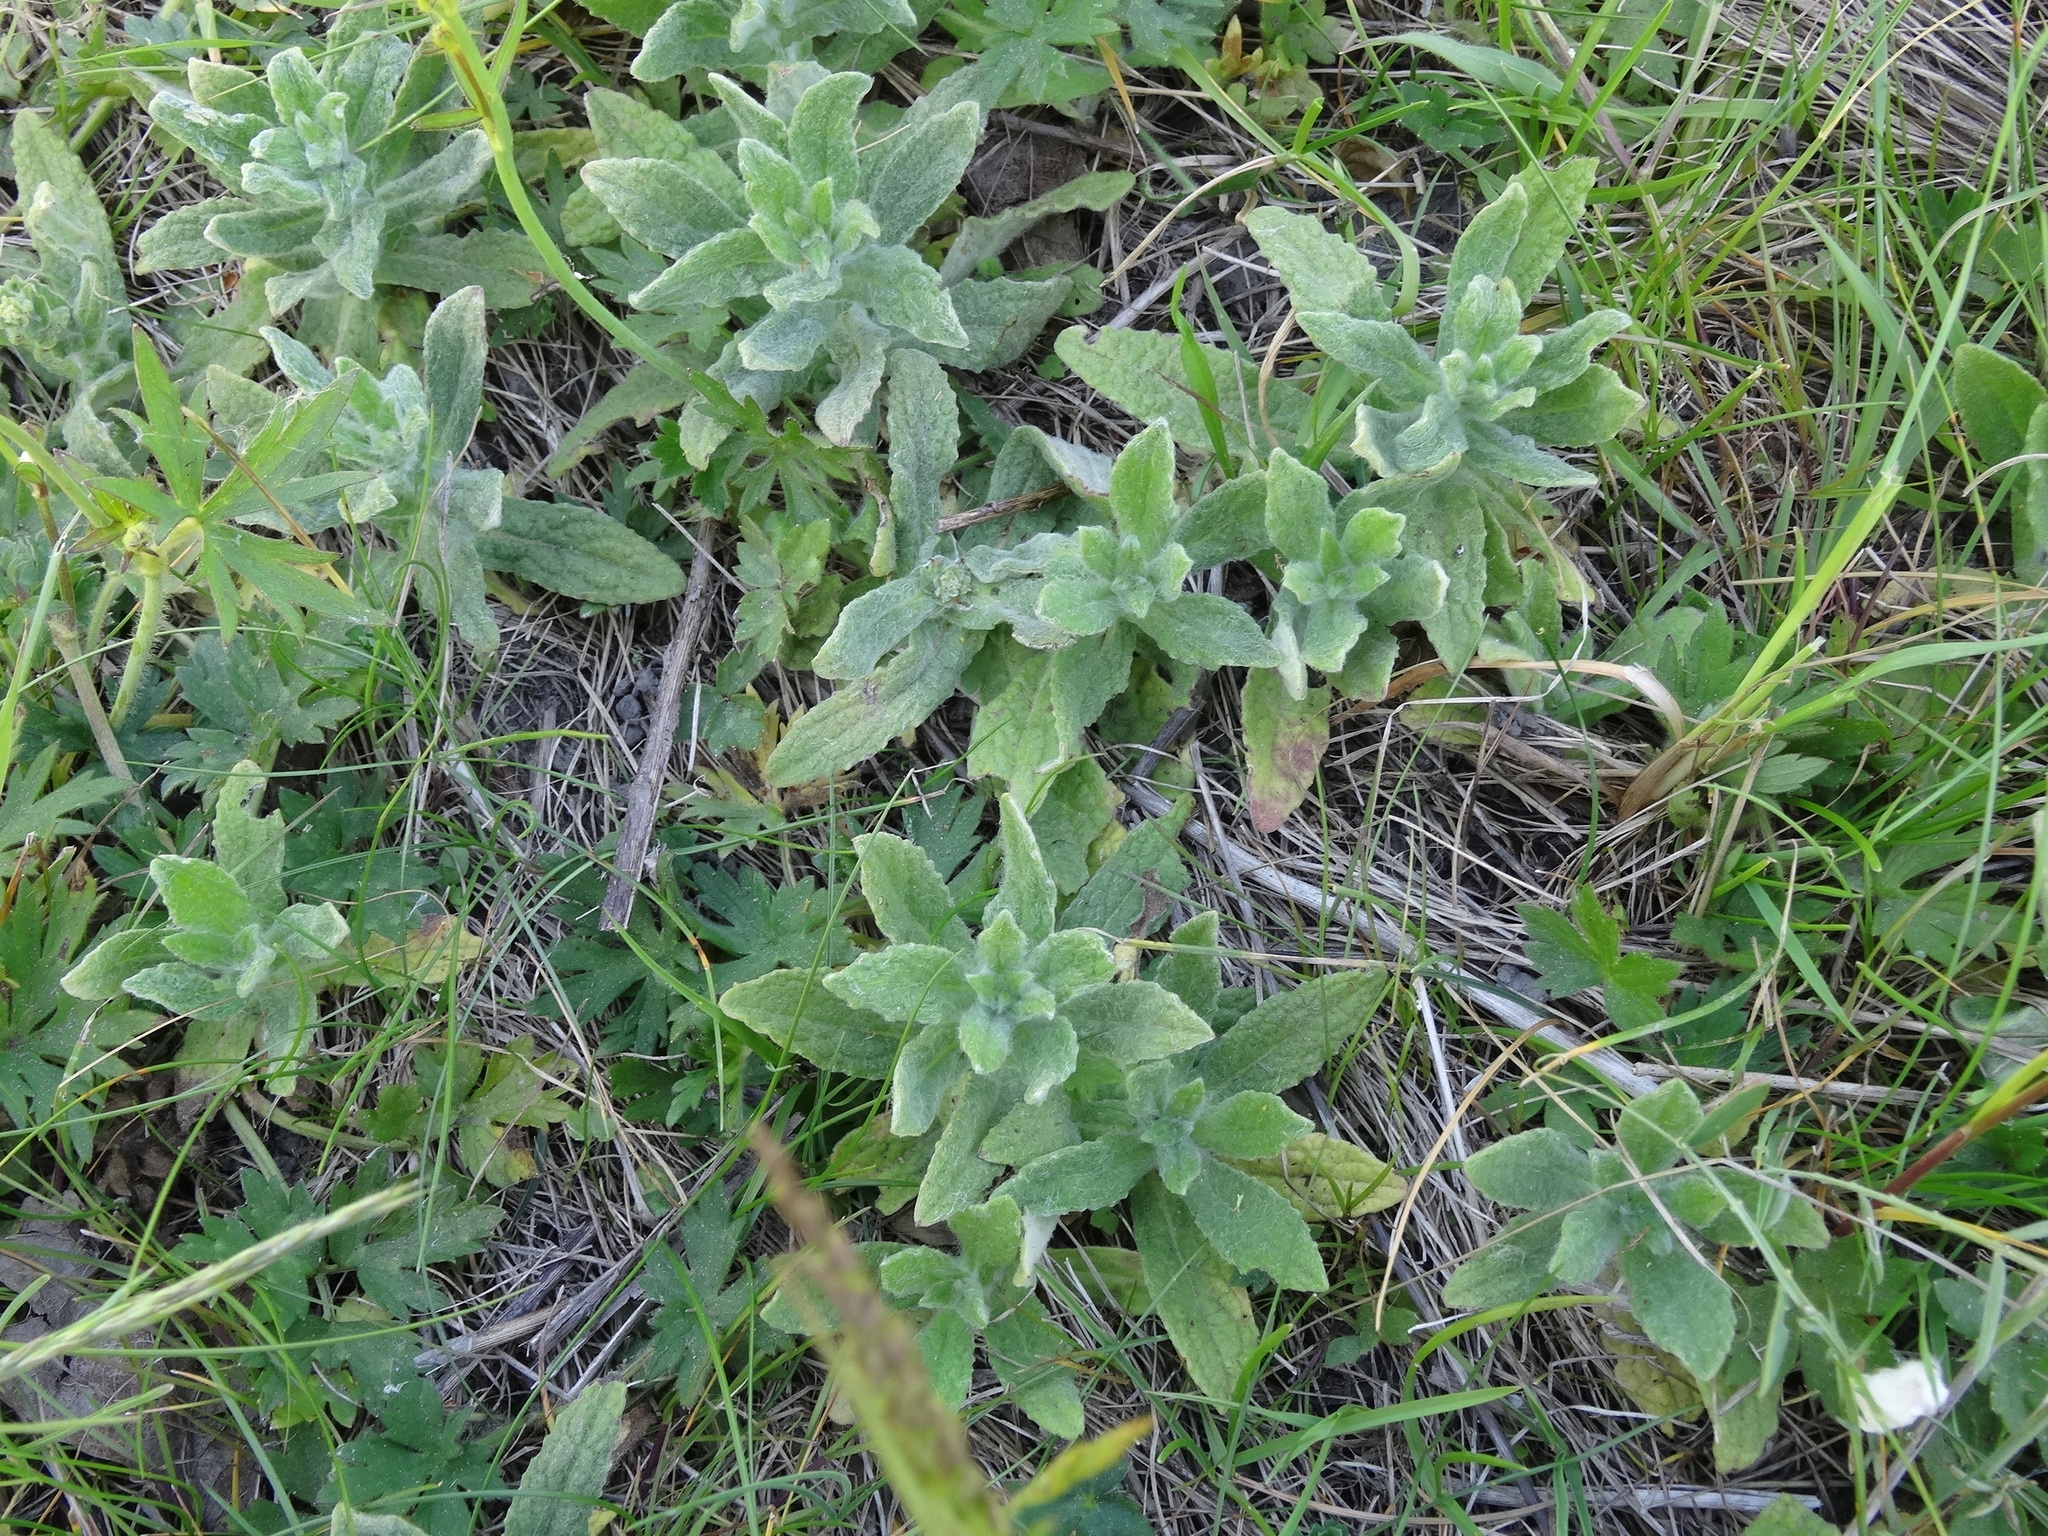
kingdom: Plantae
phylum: Tracheophyta
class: Magnoliopsida
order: Asterales
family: Asteraceae
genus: Pulicaria
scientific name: Pulicaria dysenterica
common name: Common fleabane
